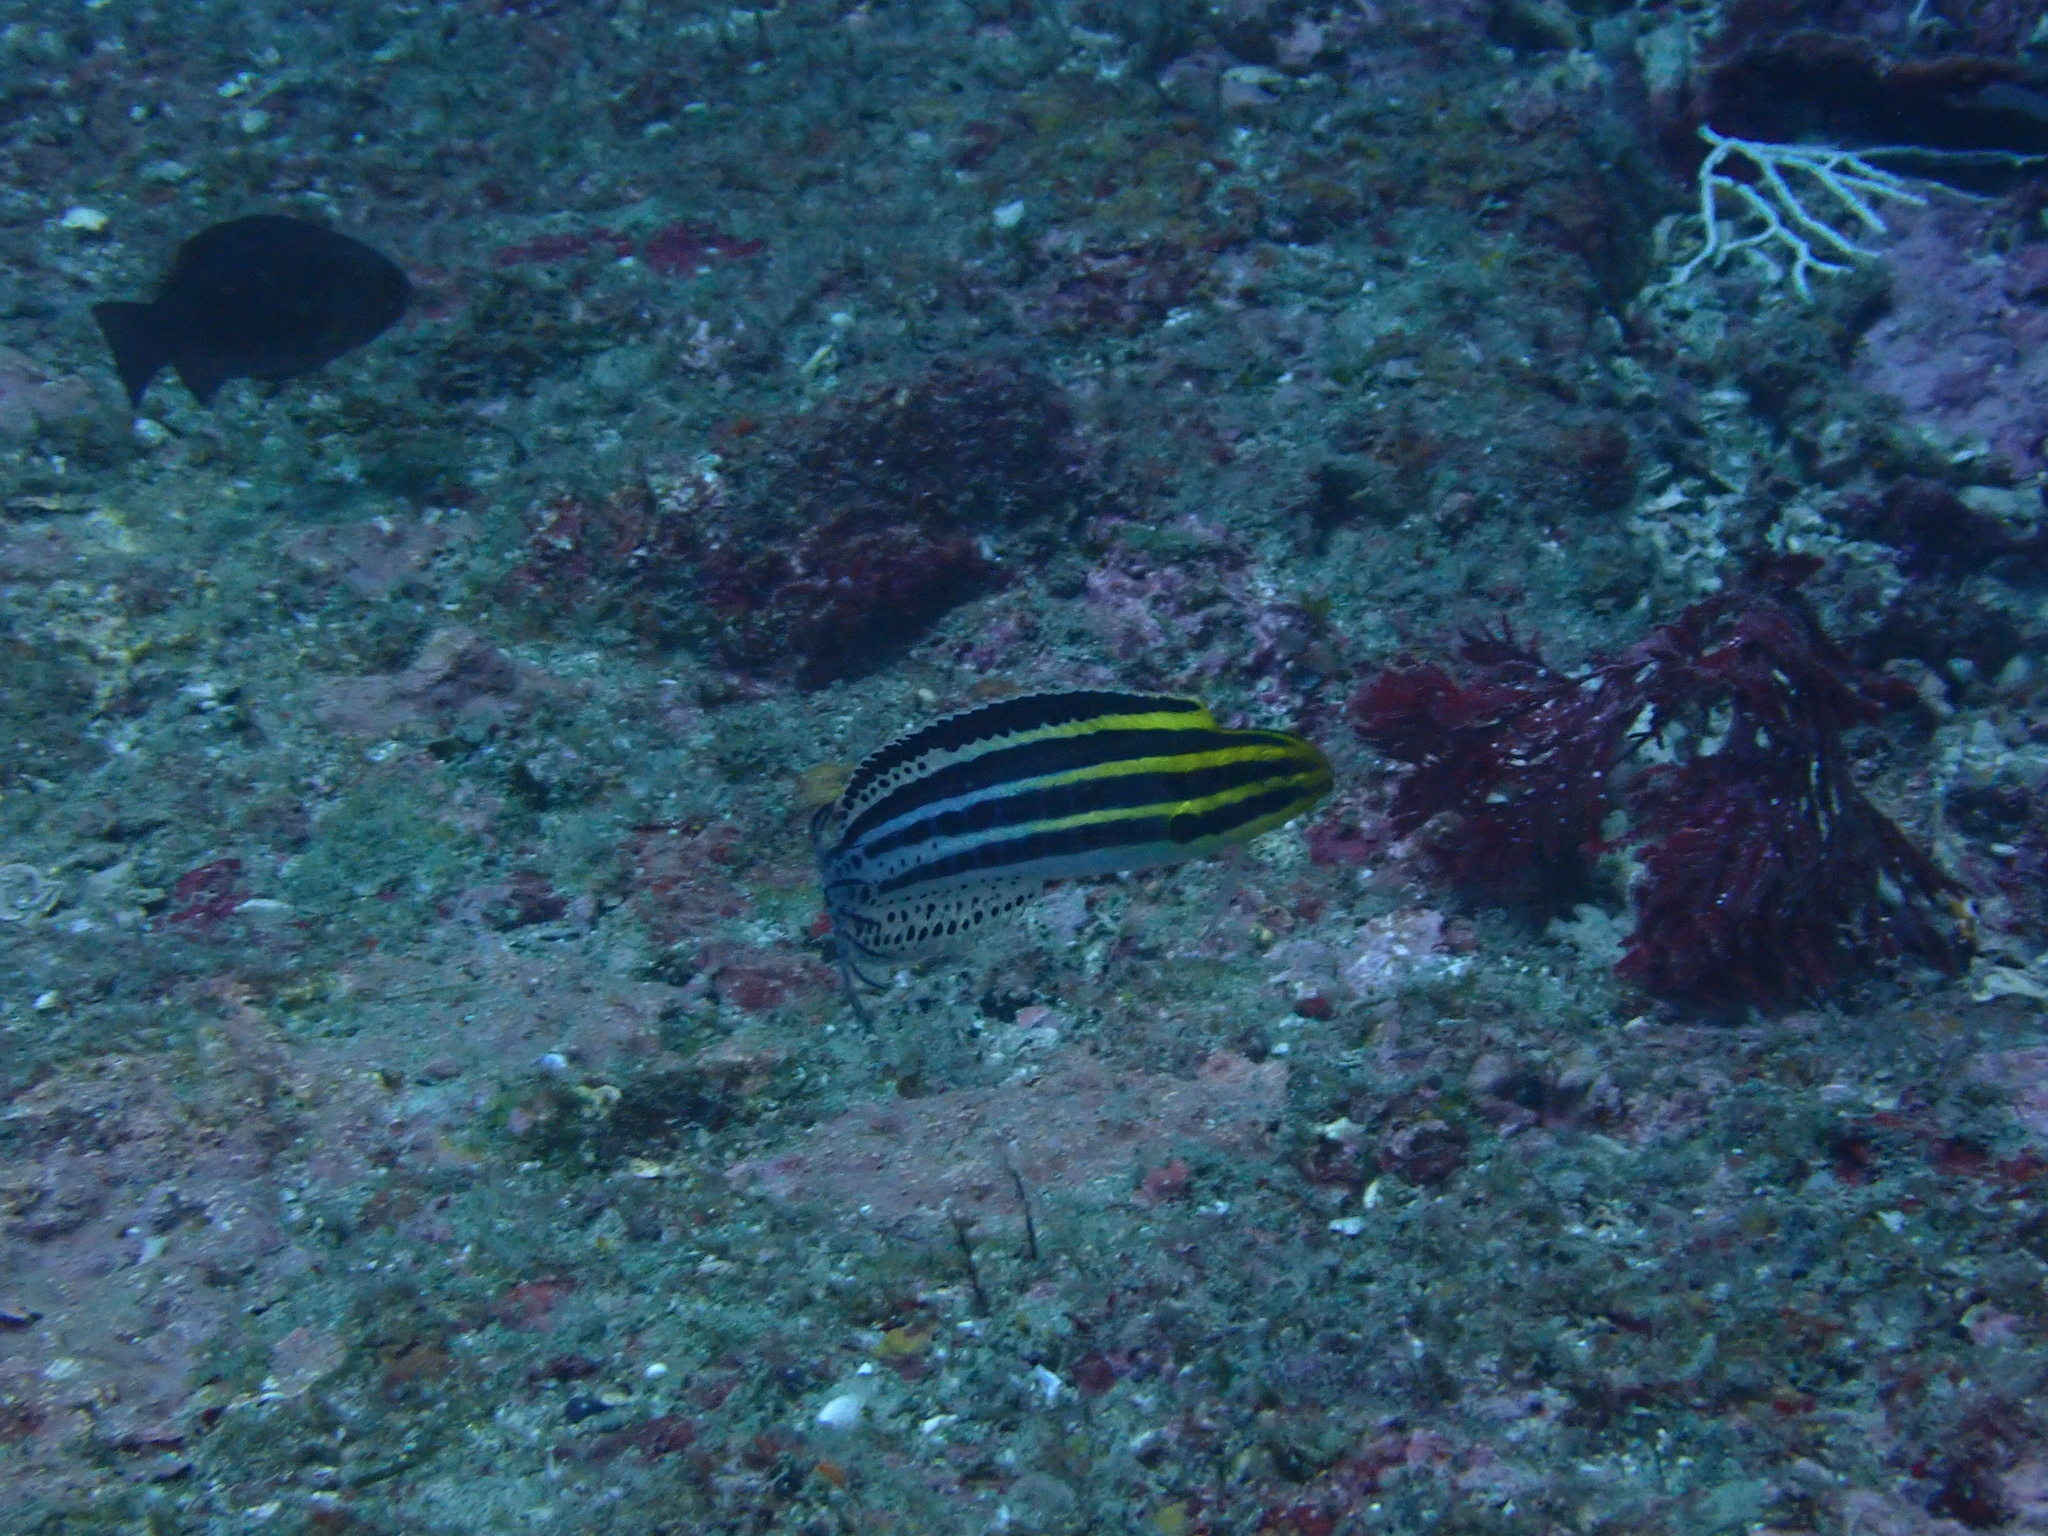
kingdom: Animalia
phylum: Chordata
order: Perciformes
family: Blenniidae
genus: Meiacanthus
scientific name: Meiacanthus grammistes
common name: Grammistes blenny
